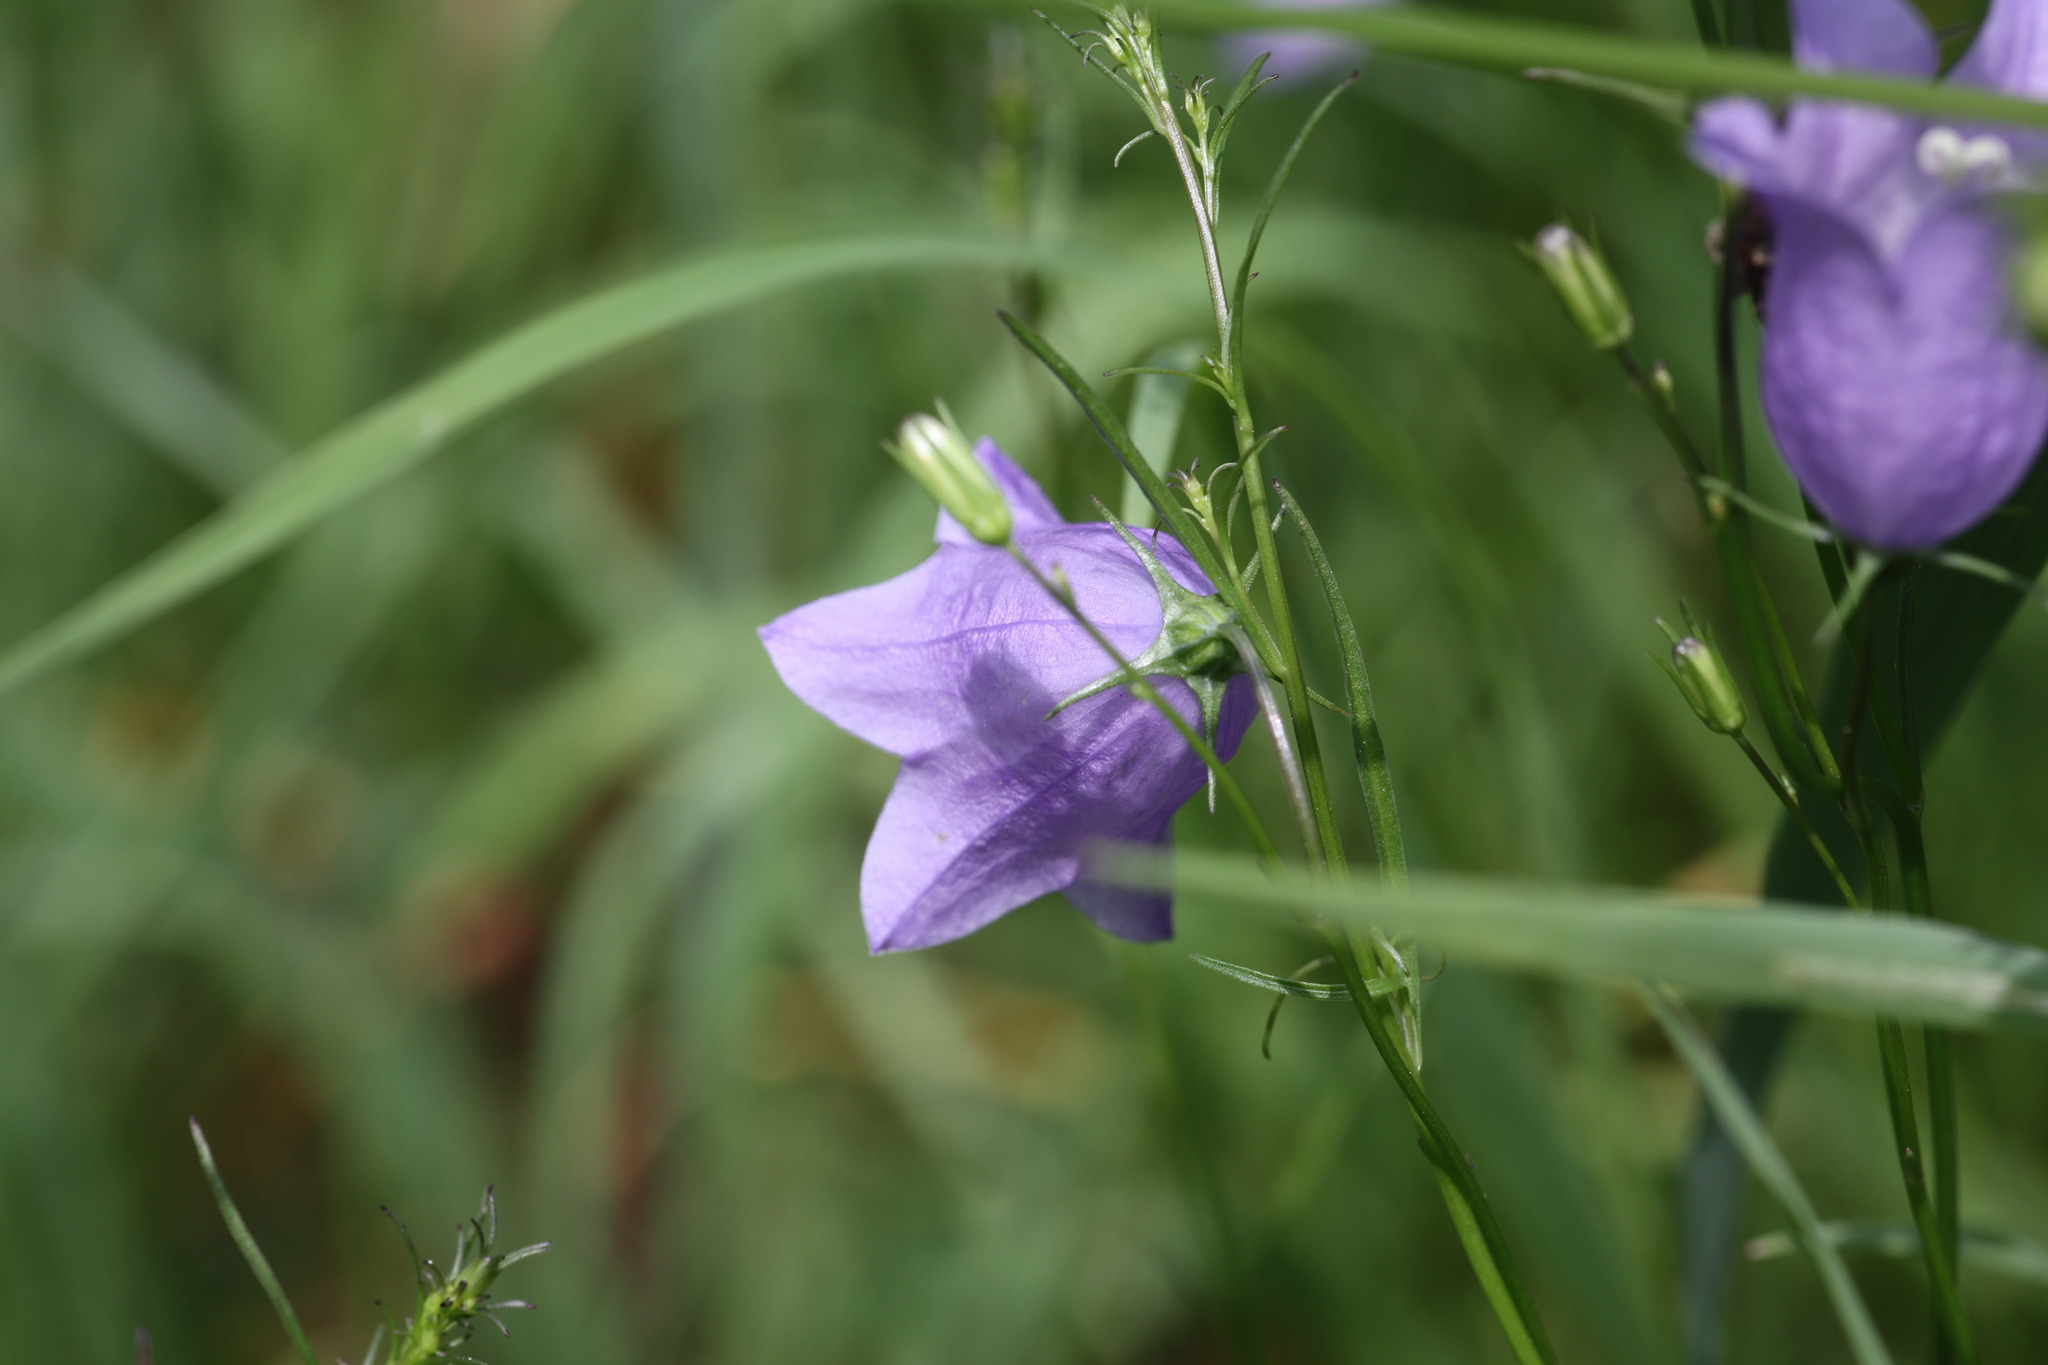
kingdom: Plantae
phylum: Tracheophyta
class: Magnoliopsida
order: Asterales
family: Campanulaceae
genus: Campanula
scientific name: Campanula rotundifolia
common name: Harebell
